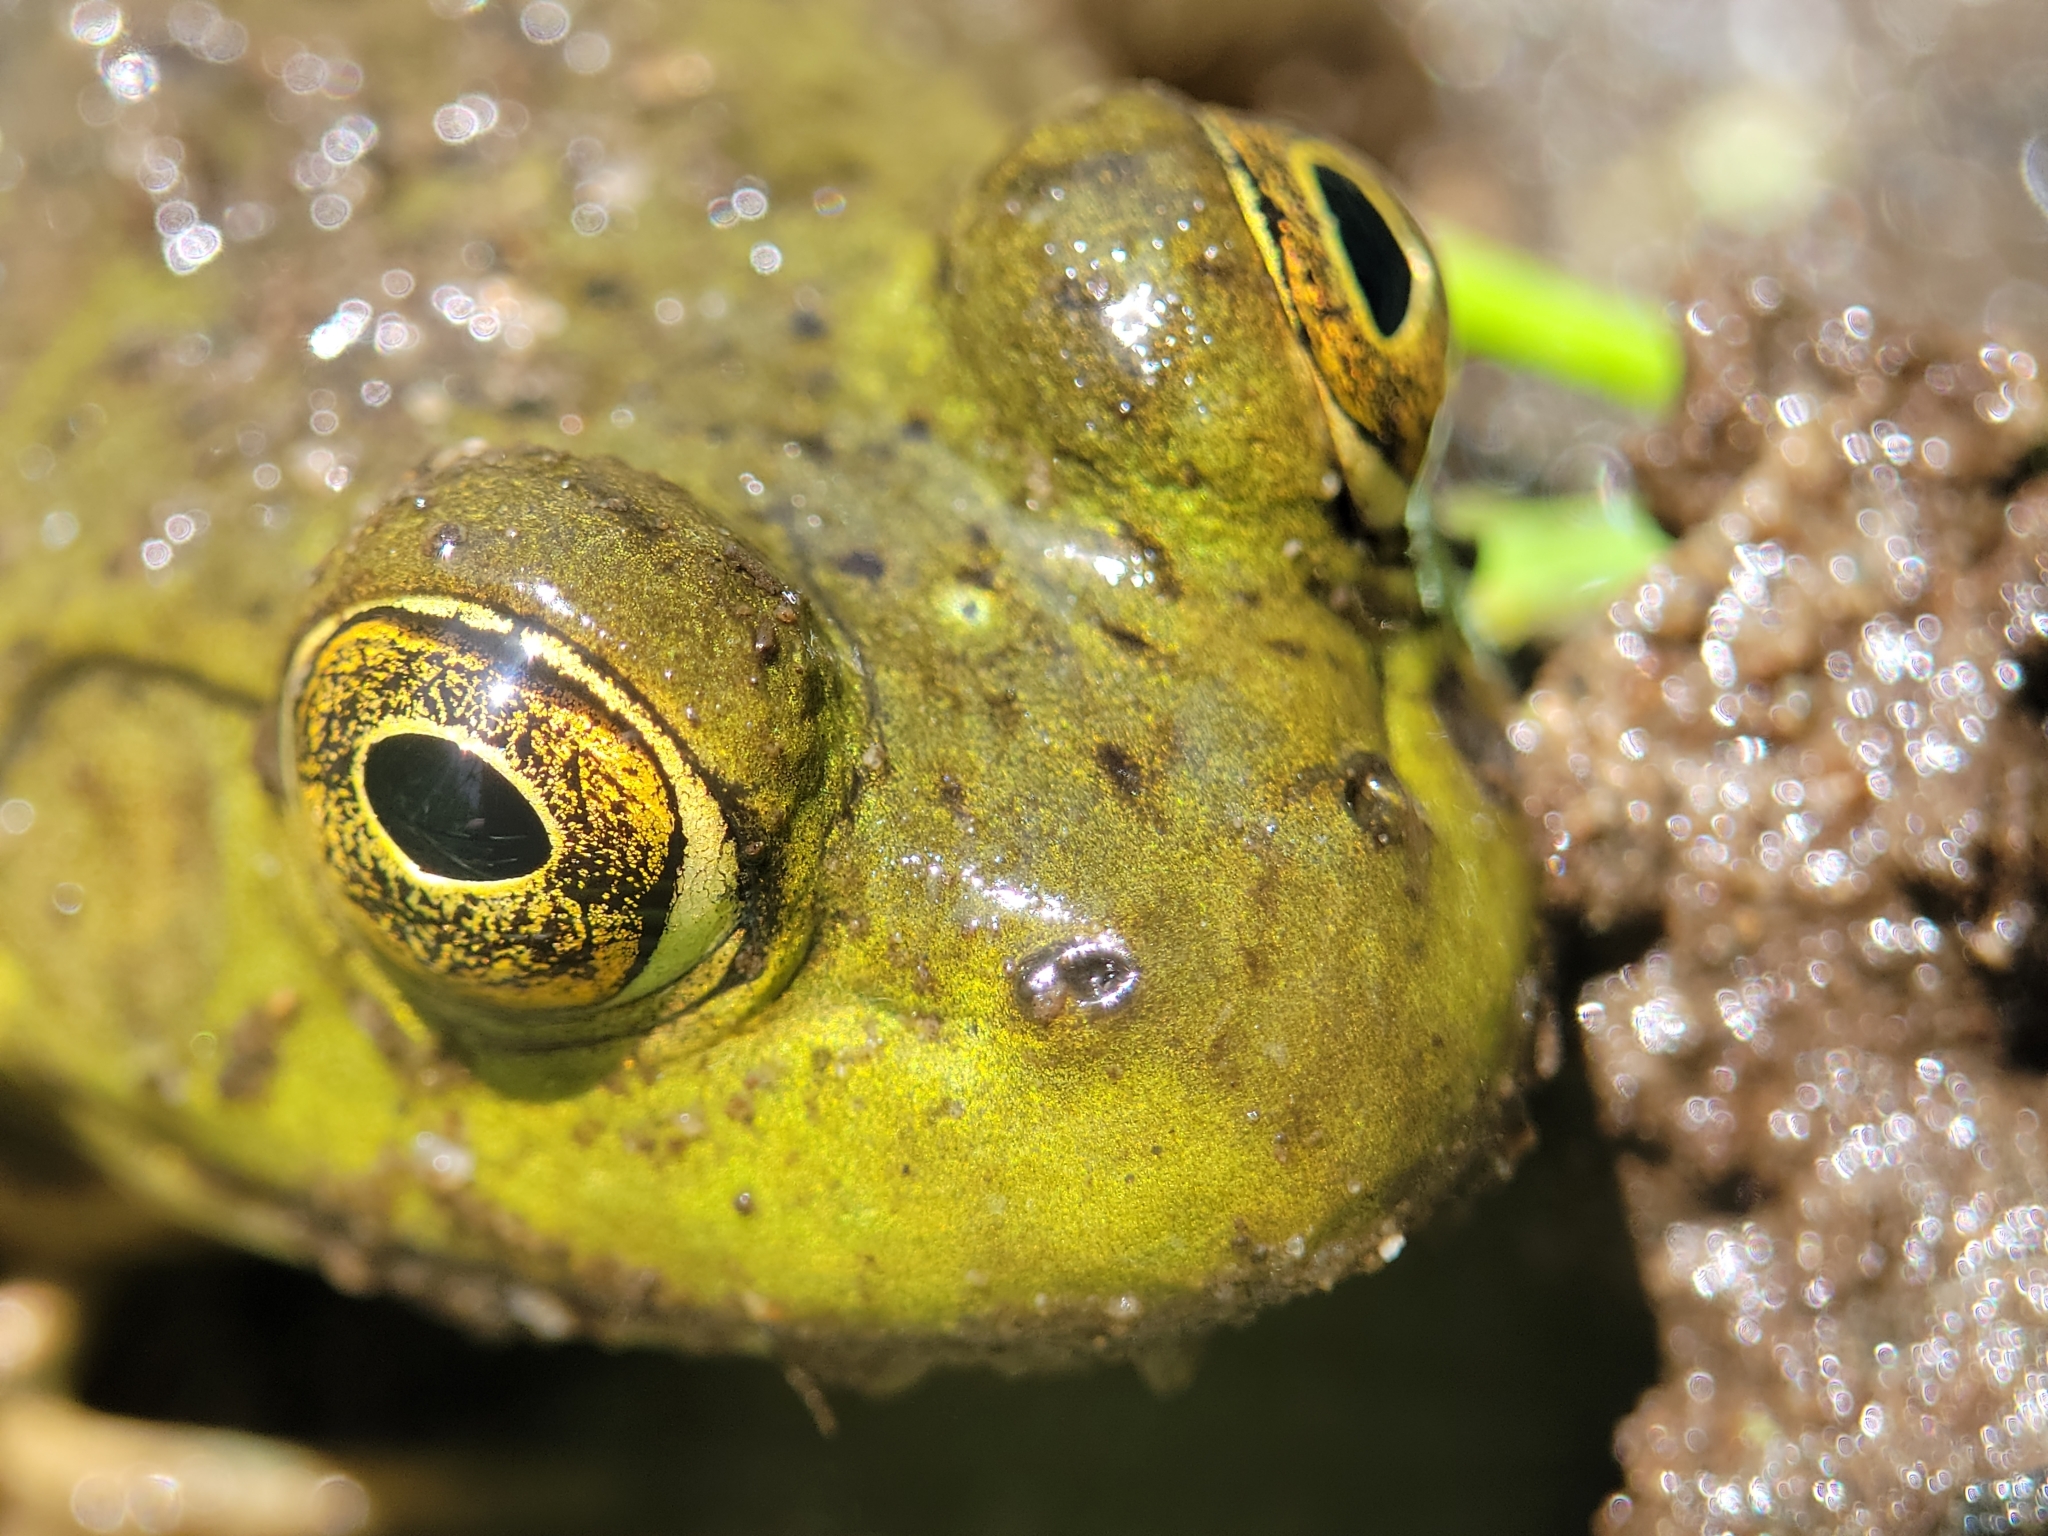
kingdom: Animalia
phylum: Chordata
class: Amphibia
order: Anura
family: Ranidae
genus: Lithobates
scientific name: Lithobates catesbeianus
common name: American bullfrog
